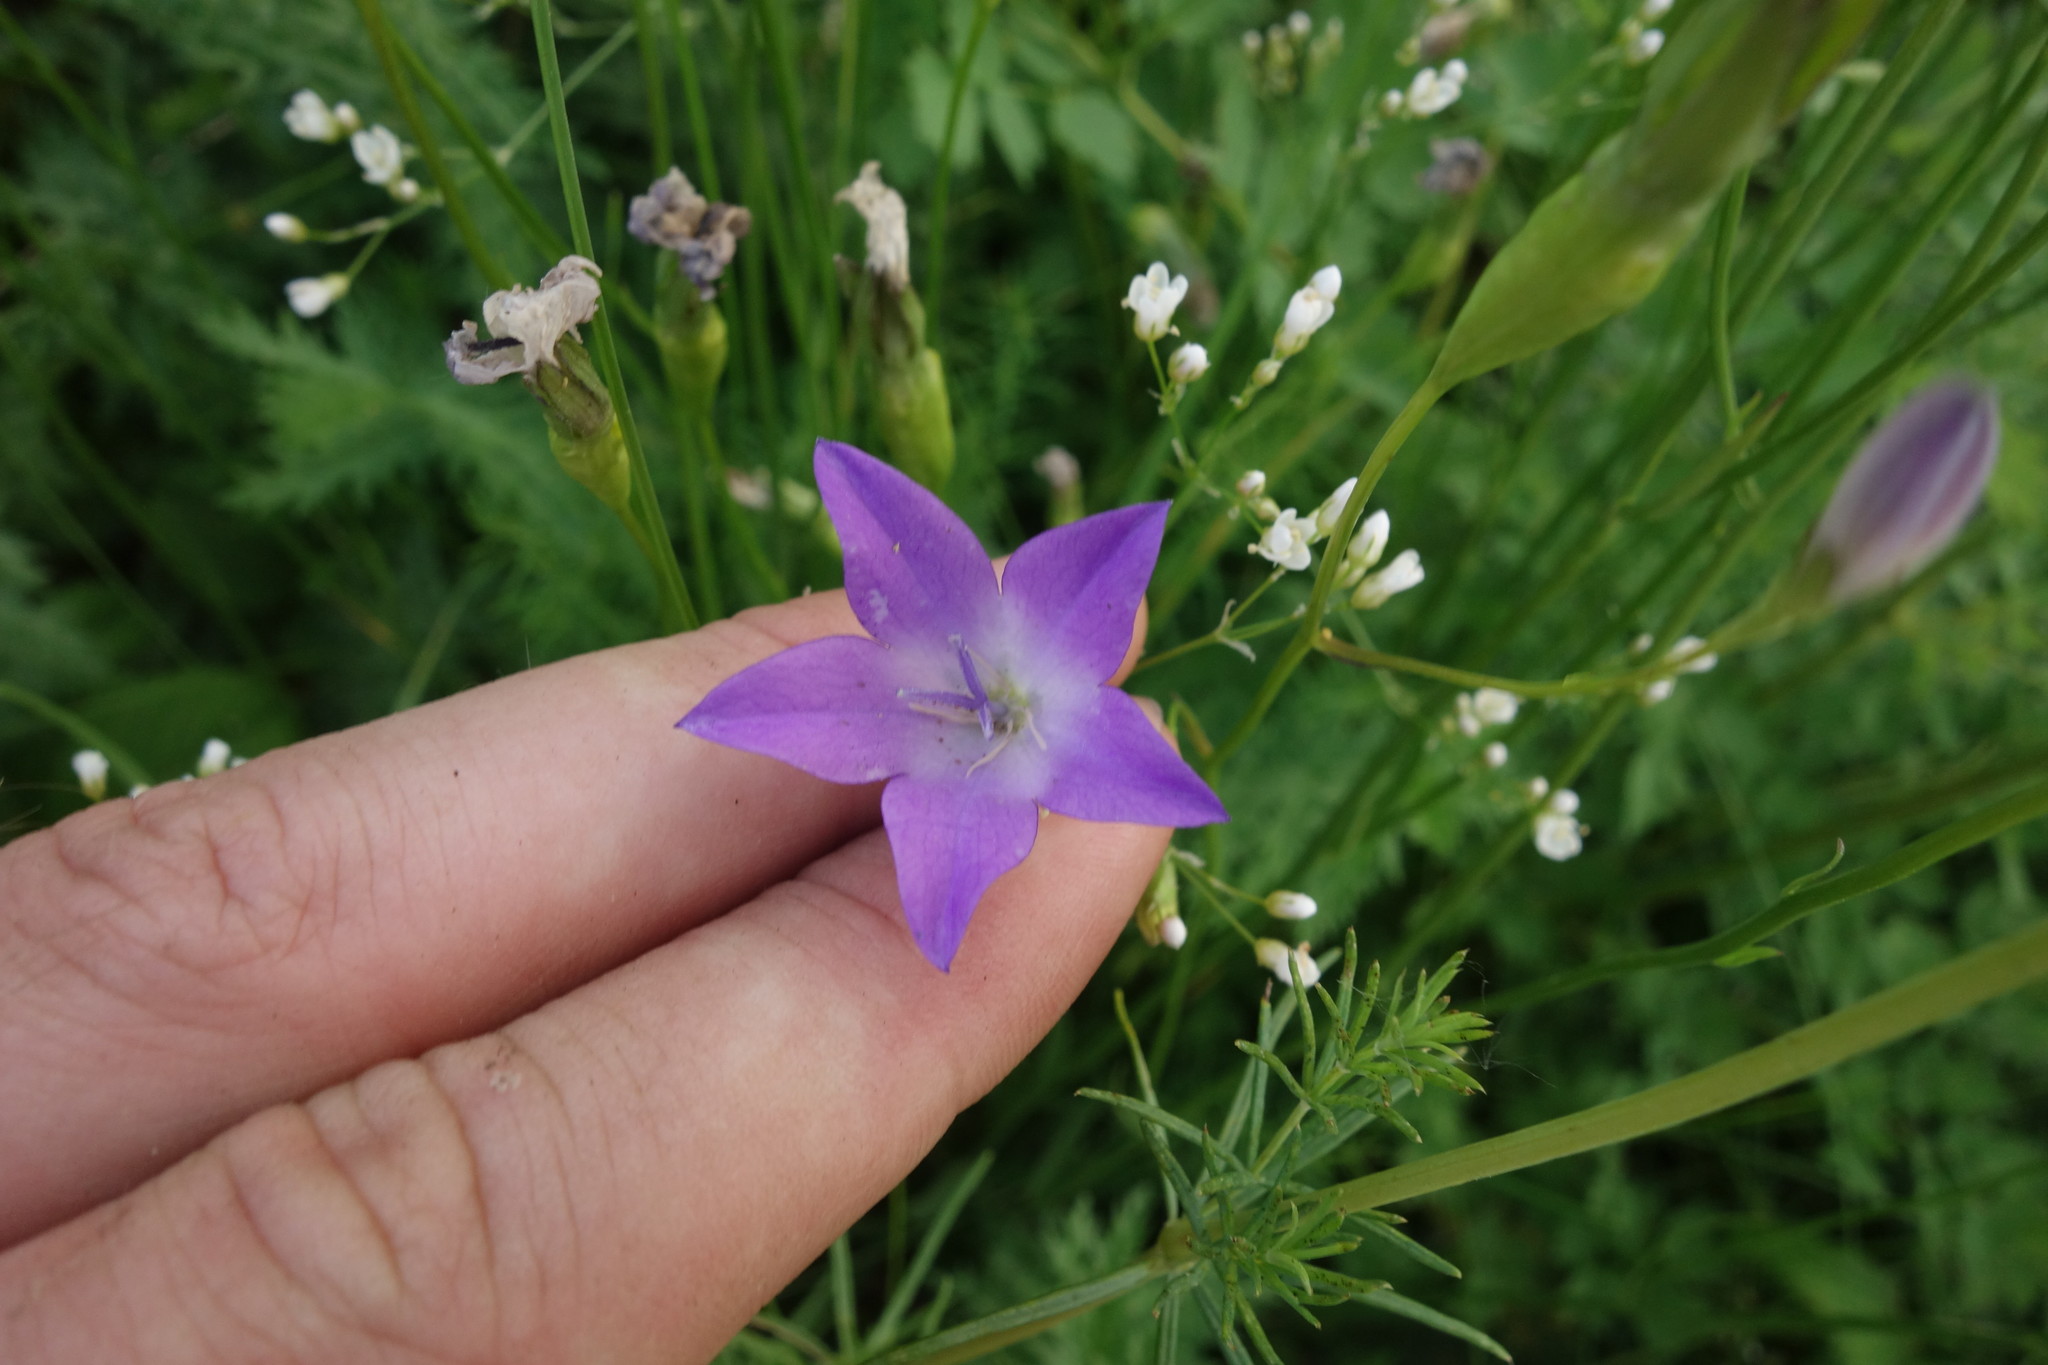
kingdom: Plantae
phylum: Tracheophyta
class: Magnoliopsida
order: Asterales
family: Campanulaceae
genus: Campanula
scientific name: Campanula stevenii
